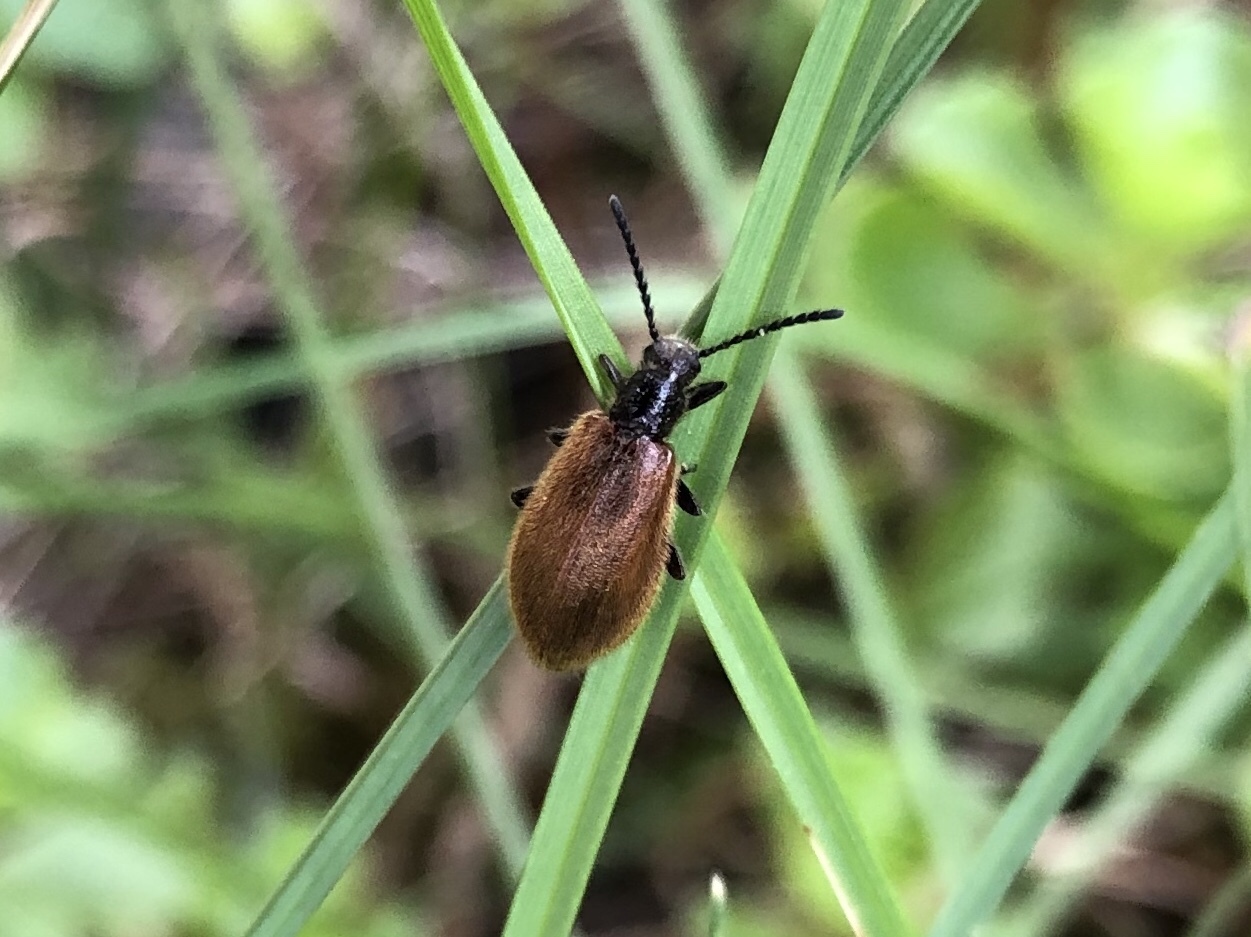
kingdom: Animalia
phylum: Arthropoda
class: Insecta
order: Coleoptera
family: Tenebrionidae
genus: Lagria
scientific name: Lagria hirta
